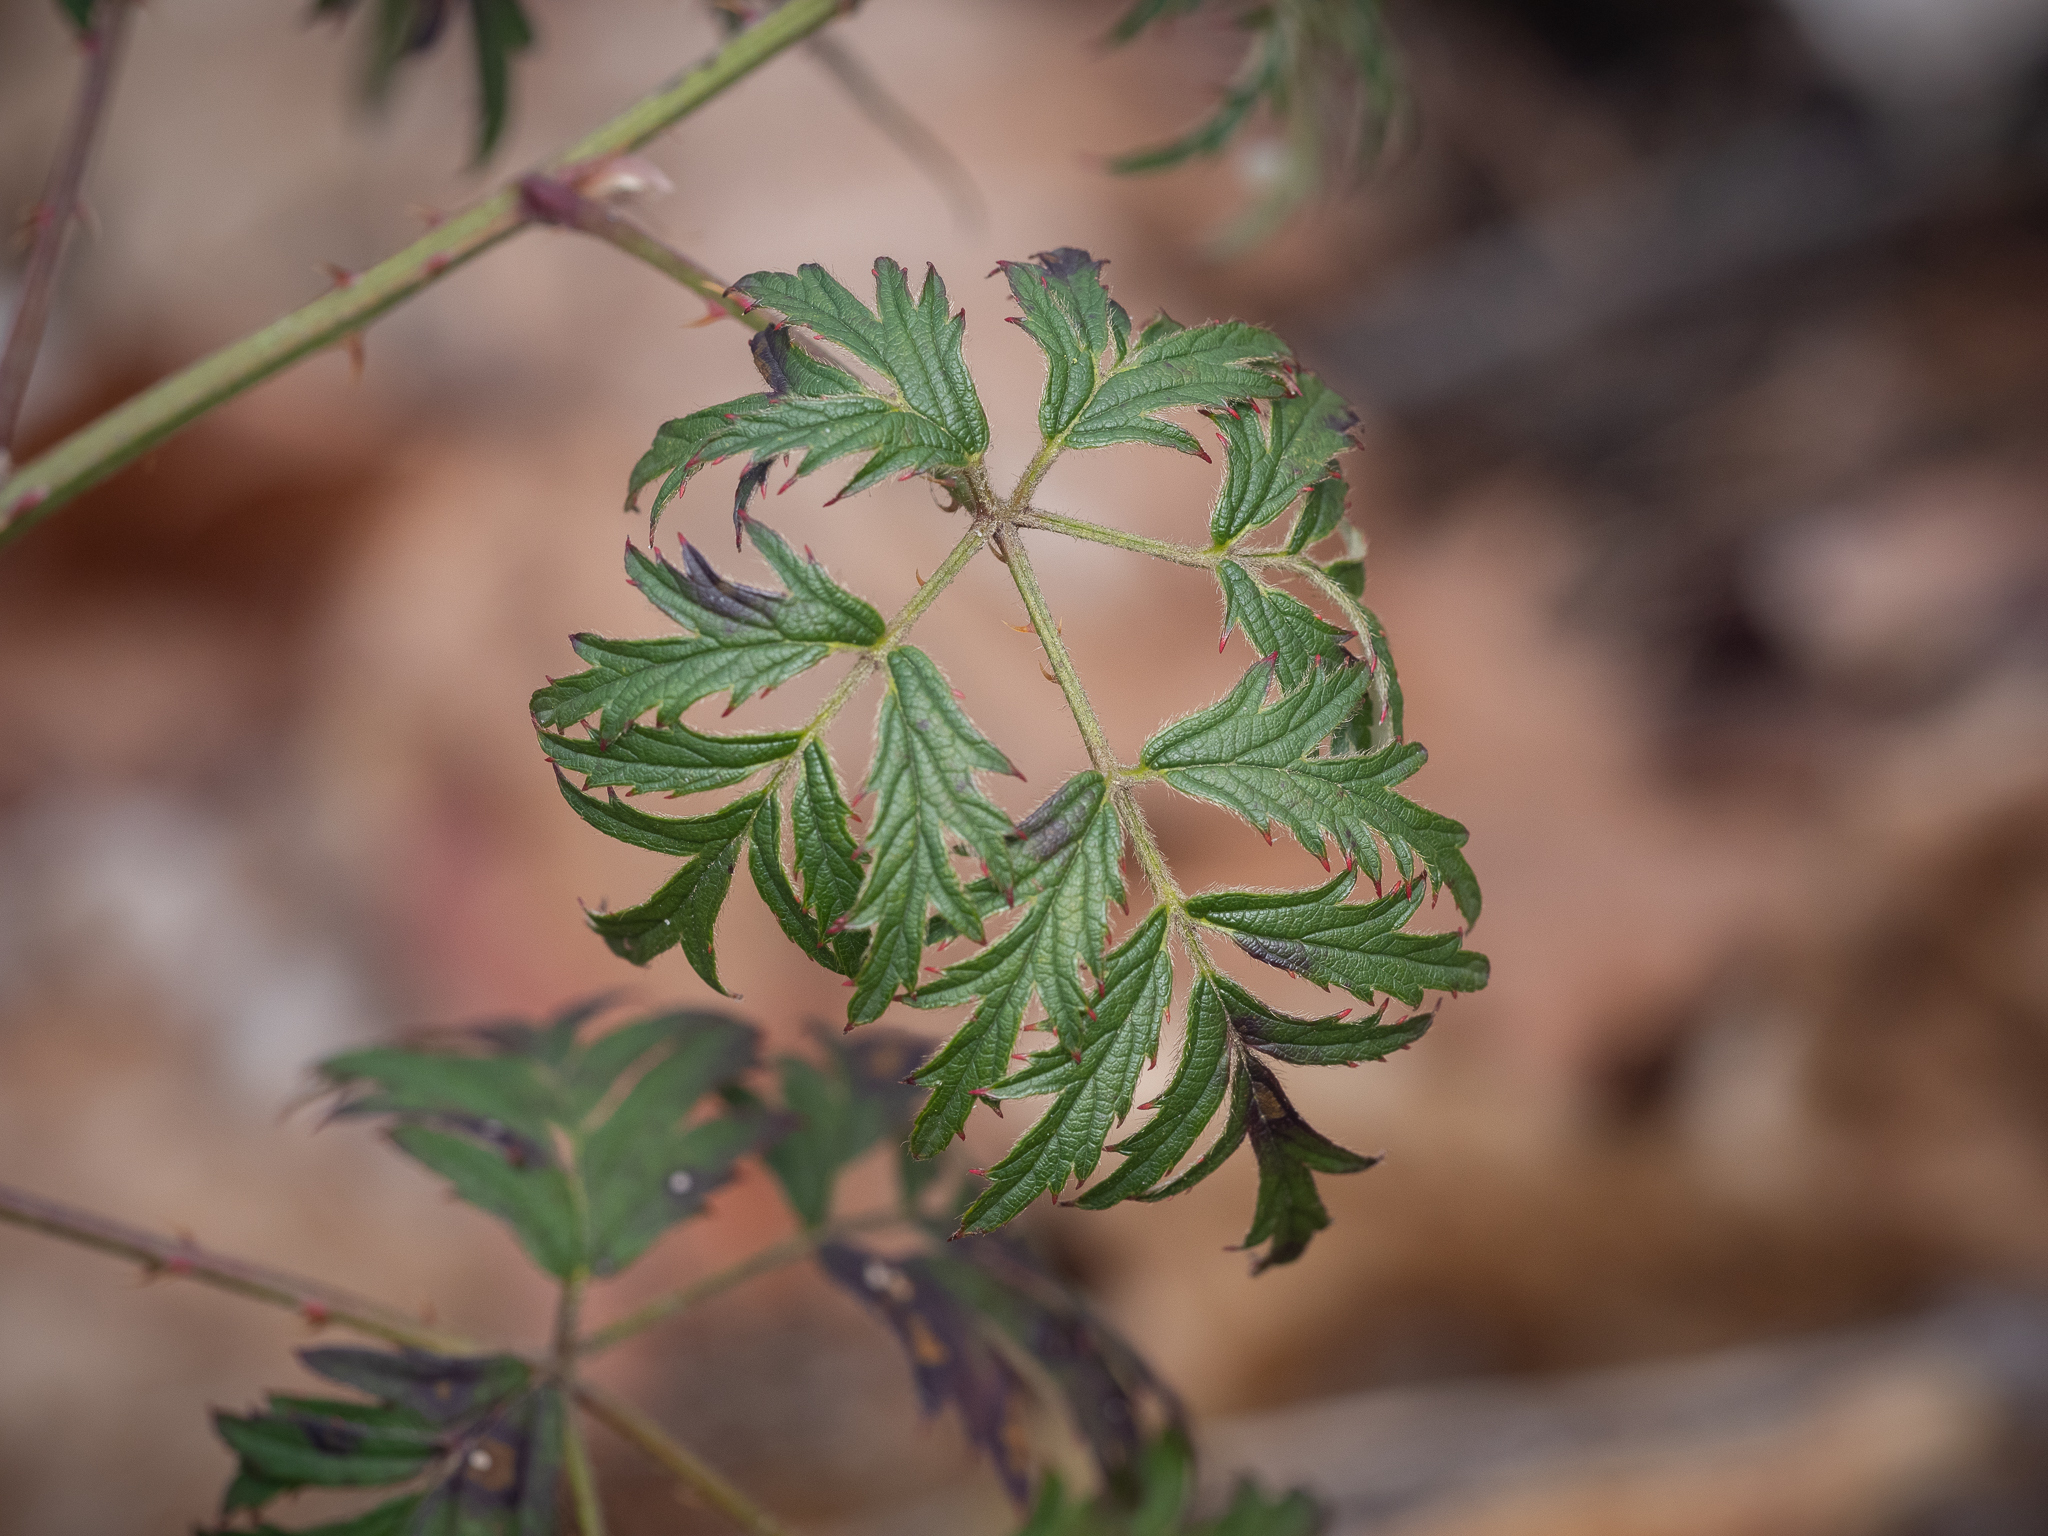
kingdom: Plantae
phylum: Tracheophyta
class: Magnoliopsida
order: Rosales
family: Rosaceae
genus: Rubus
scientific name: Rubus laciniatus
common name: Evergreen blackberry
